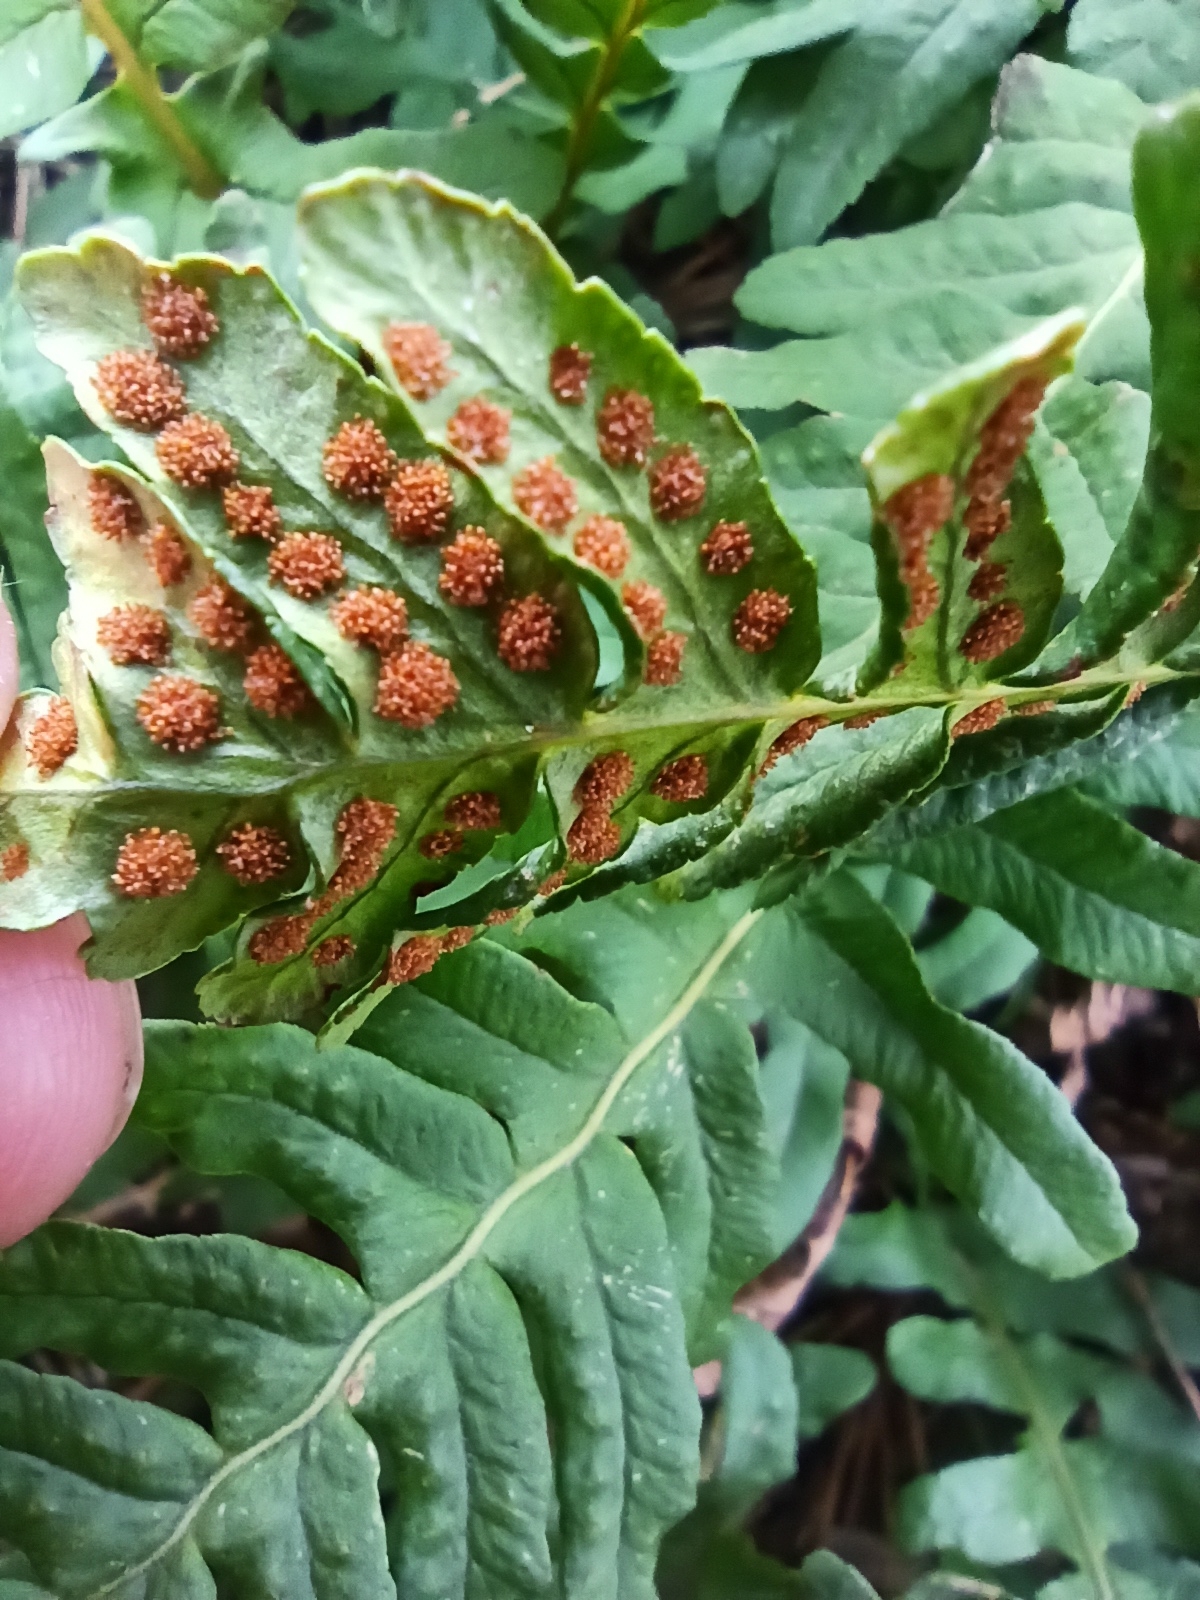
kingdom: Plantae
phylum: Tracheophyta
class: Polypodiopsida
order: Polypodiales
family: Polypodiaceae
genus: Polypodium
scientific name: Polypodium vulgare
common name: Common polypody
